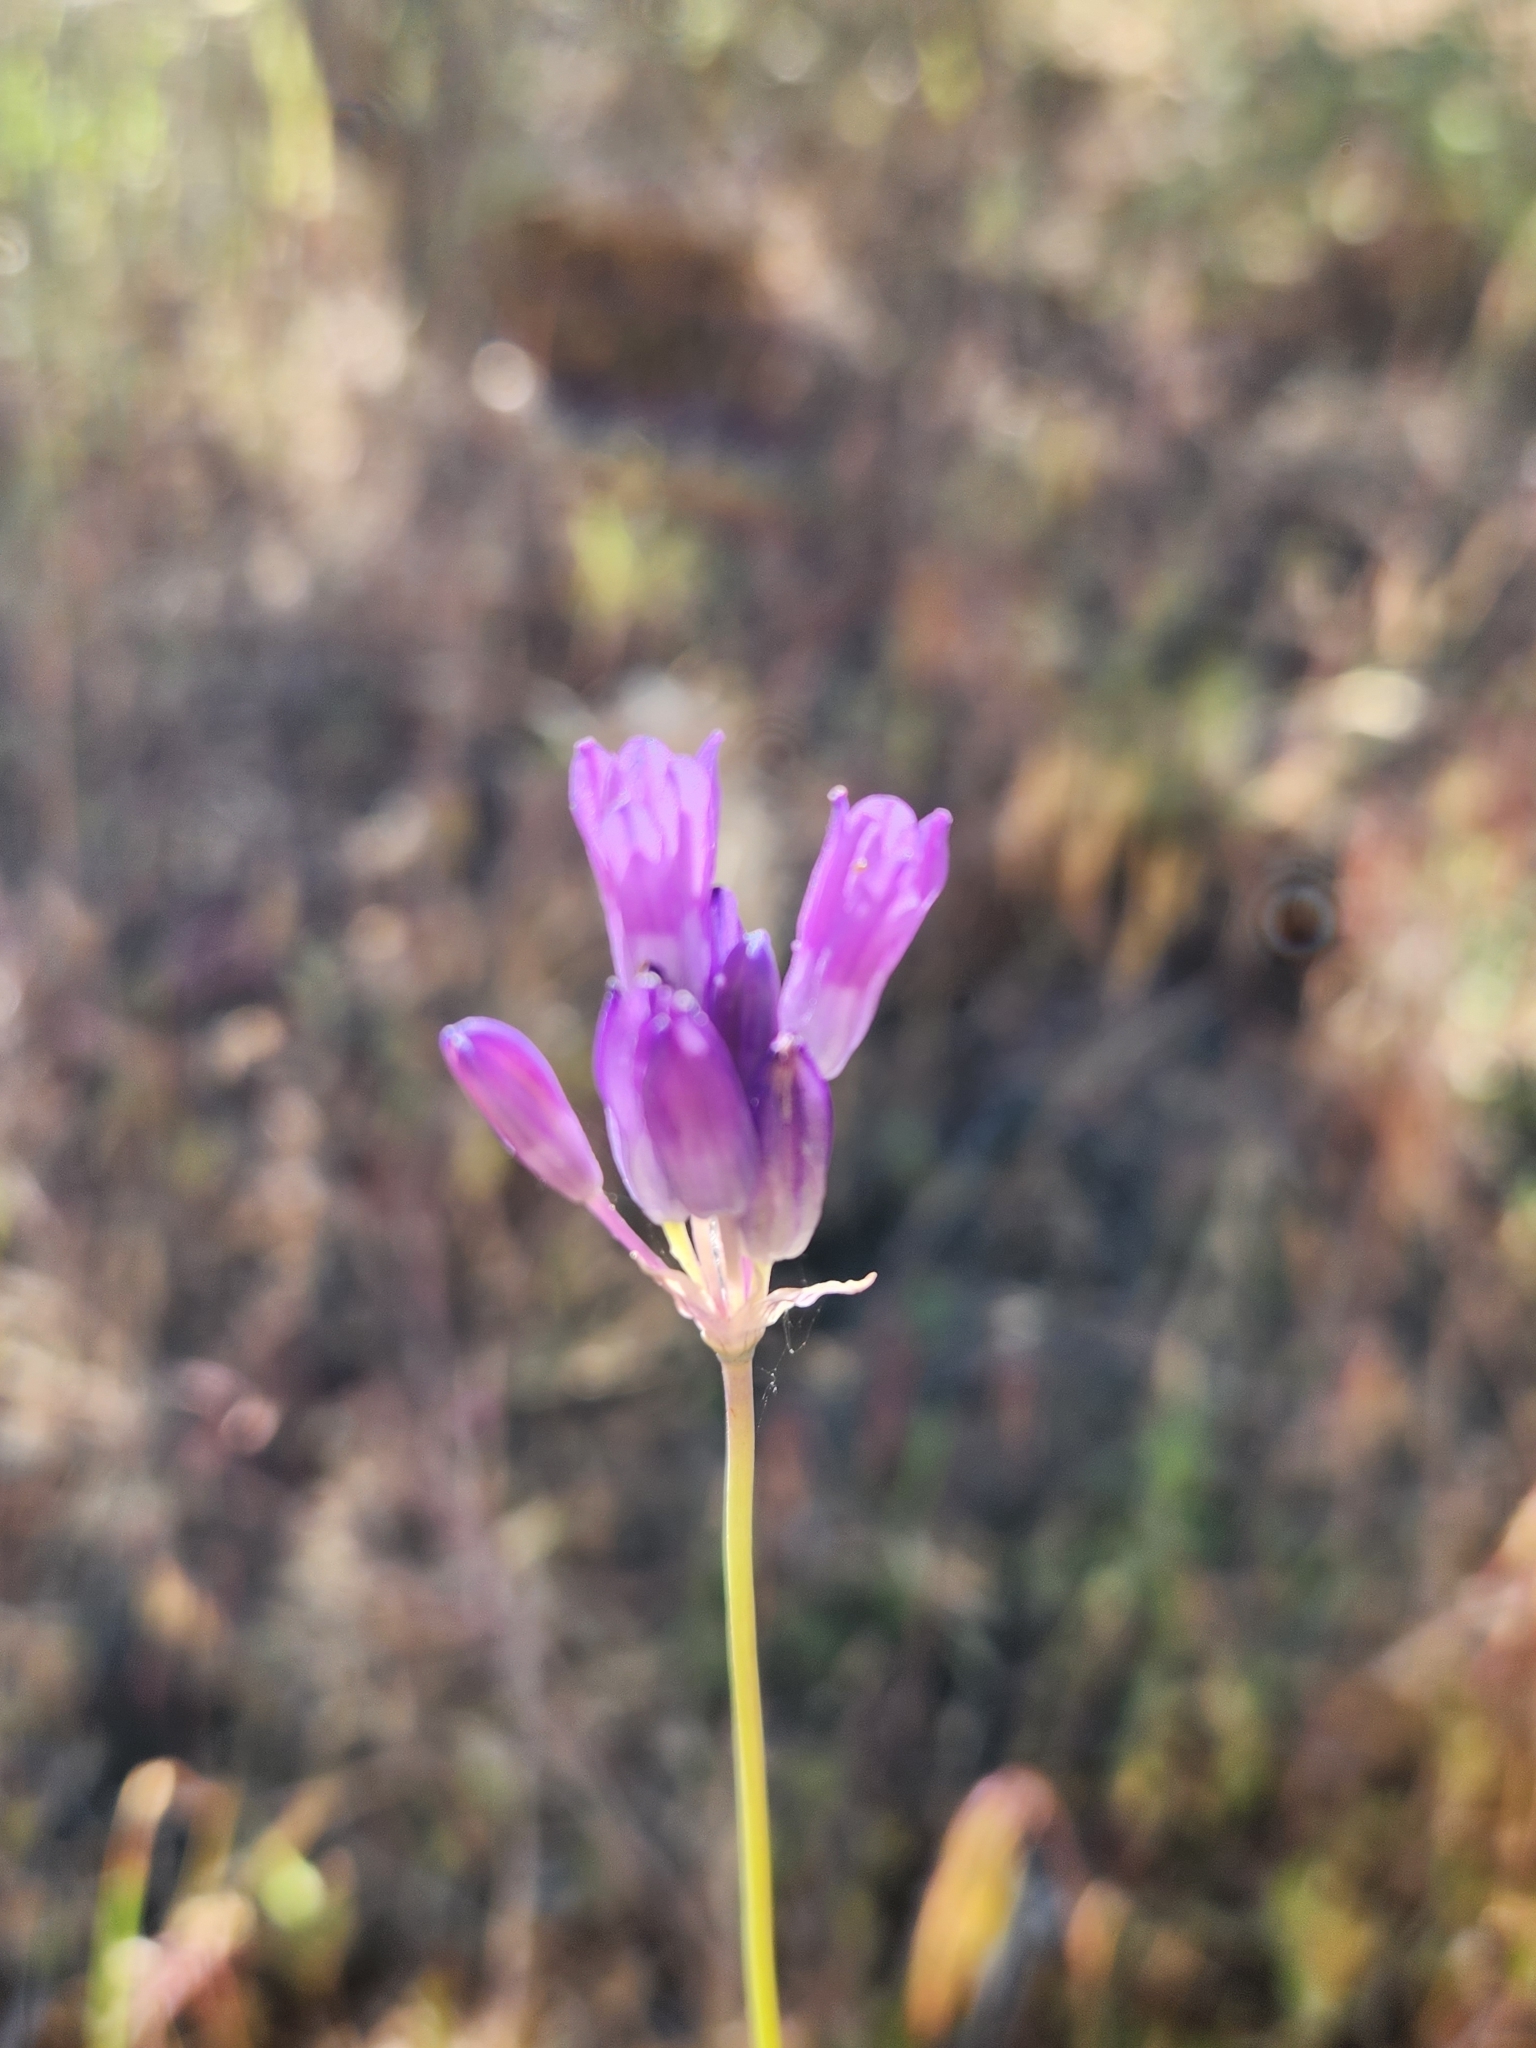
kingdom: Plantae
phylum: Tracheophyta
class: Liliopsida
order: Asparagales
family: Asparagaceae
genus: Dipterostemon
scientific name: Dipterostemon capitatus
